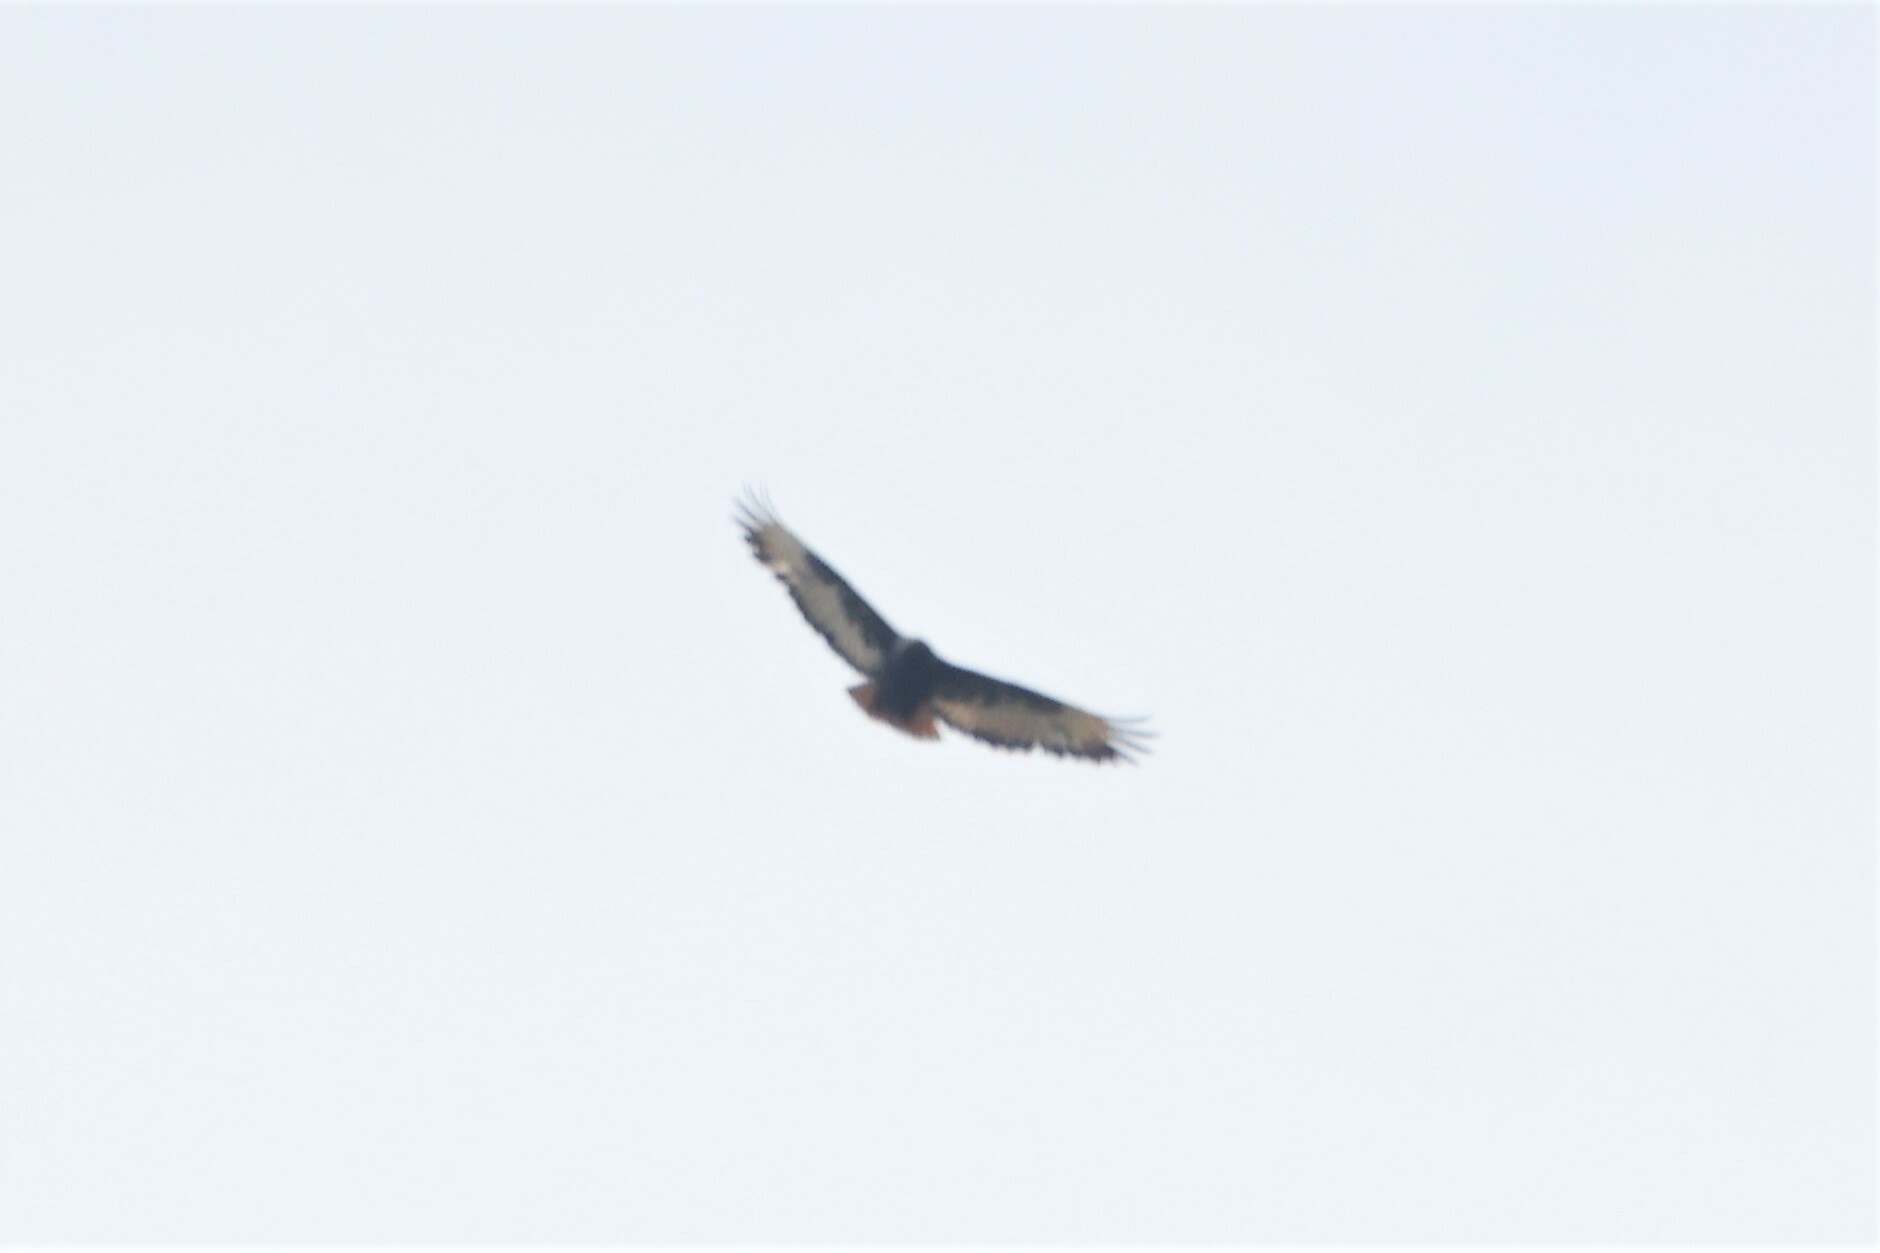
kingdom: Animalia
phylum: Chordata
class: Aves
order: Accipitriformes
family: Accipitridae
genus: Buteo
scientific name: Buteo augur
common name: Augur buzzard
